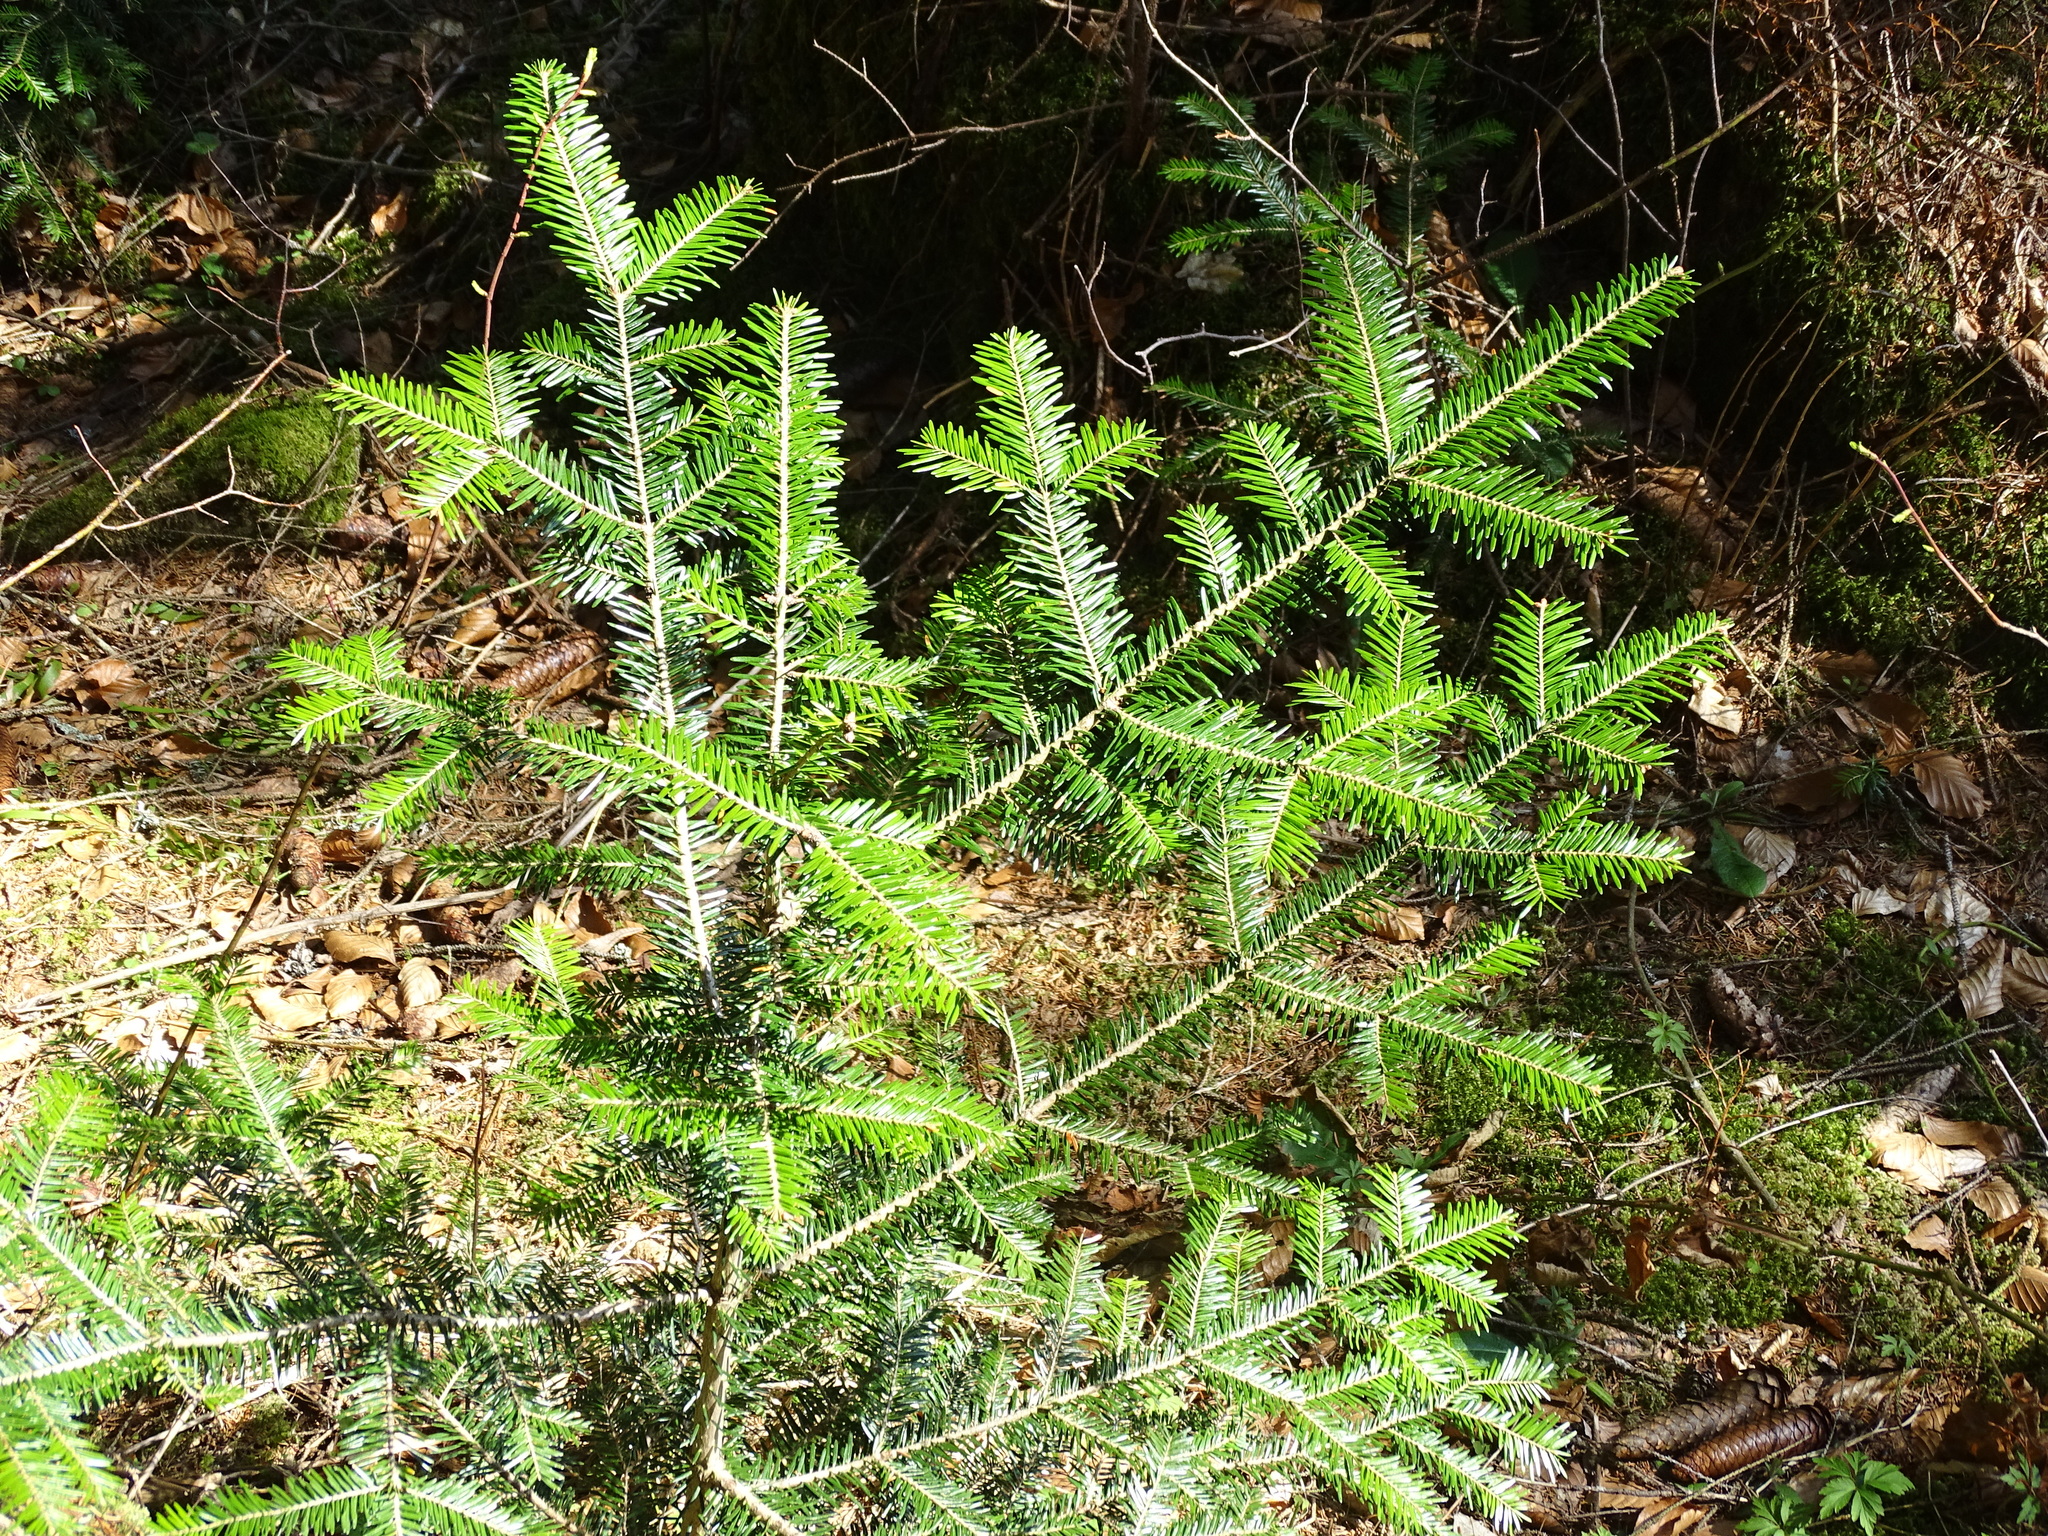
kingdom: Plantae
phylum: Tracheophyta
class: Pinopsida
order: Pinales
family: Pinaceae
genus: Abies
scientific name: Abies alba
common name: Silver fir
